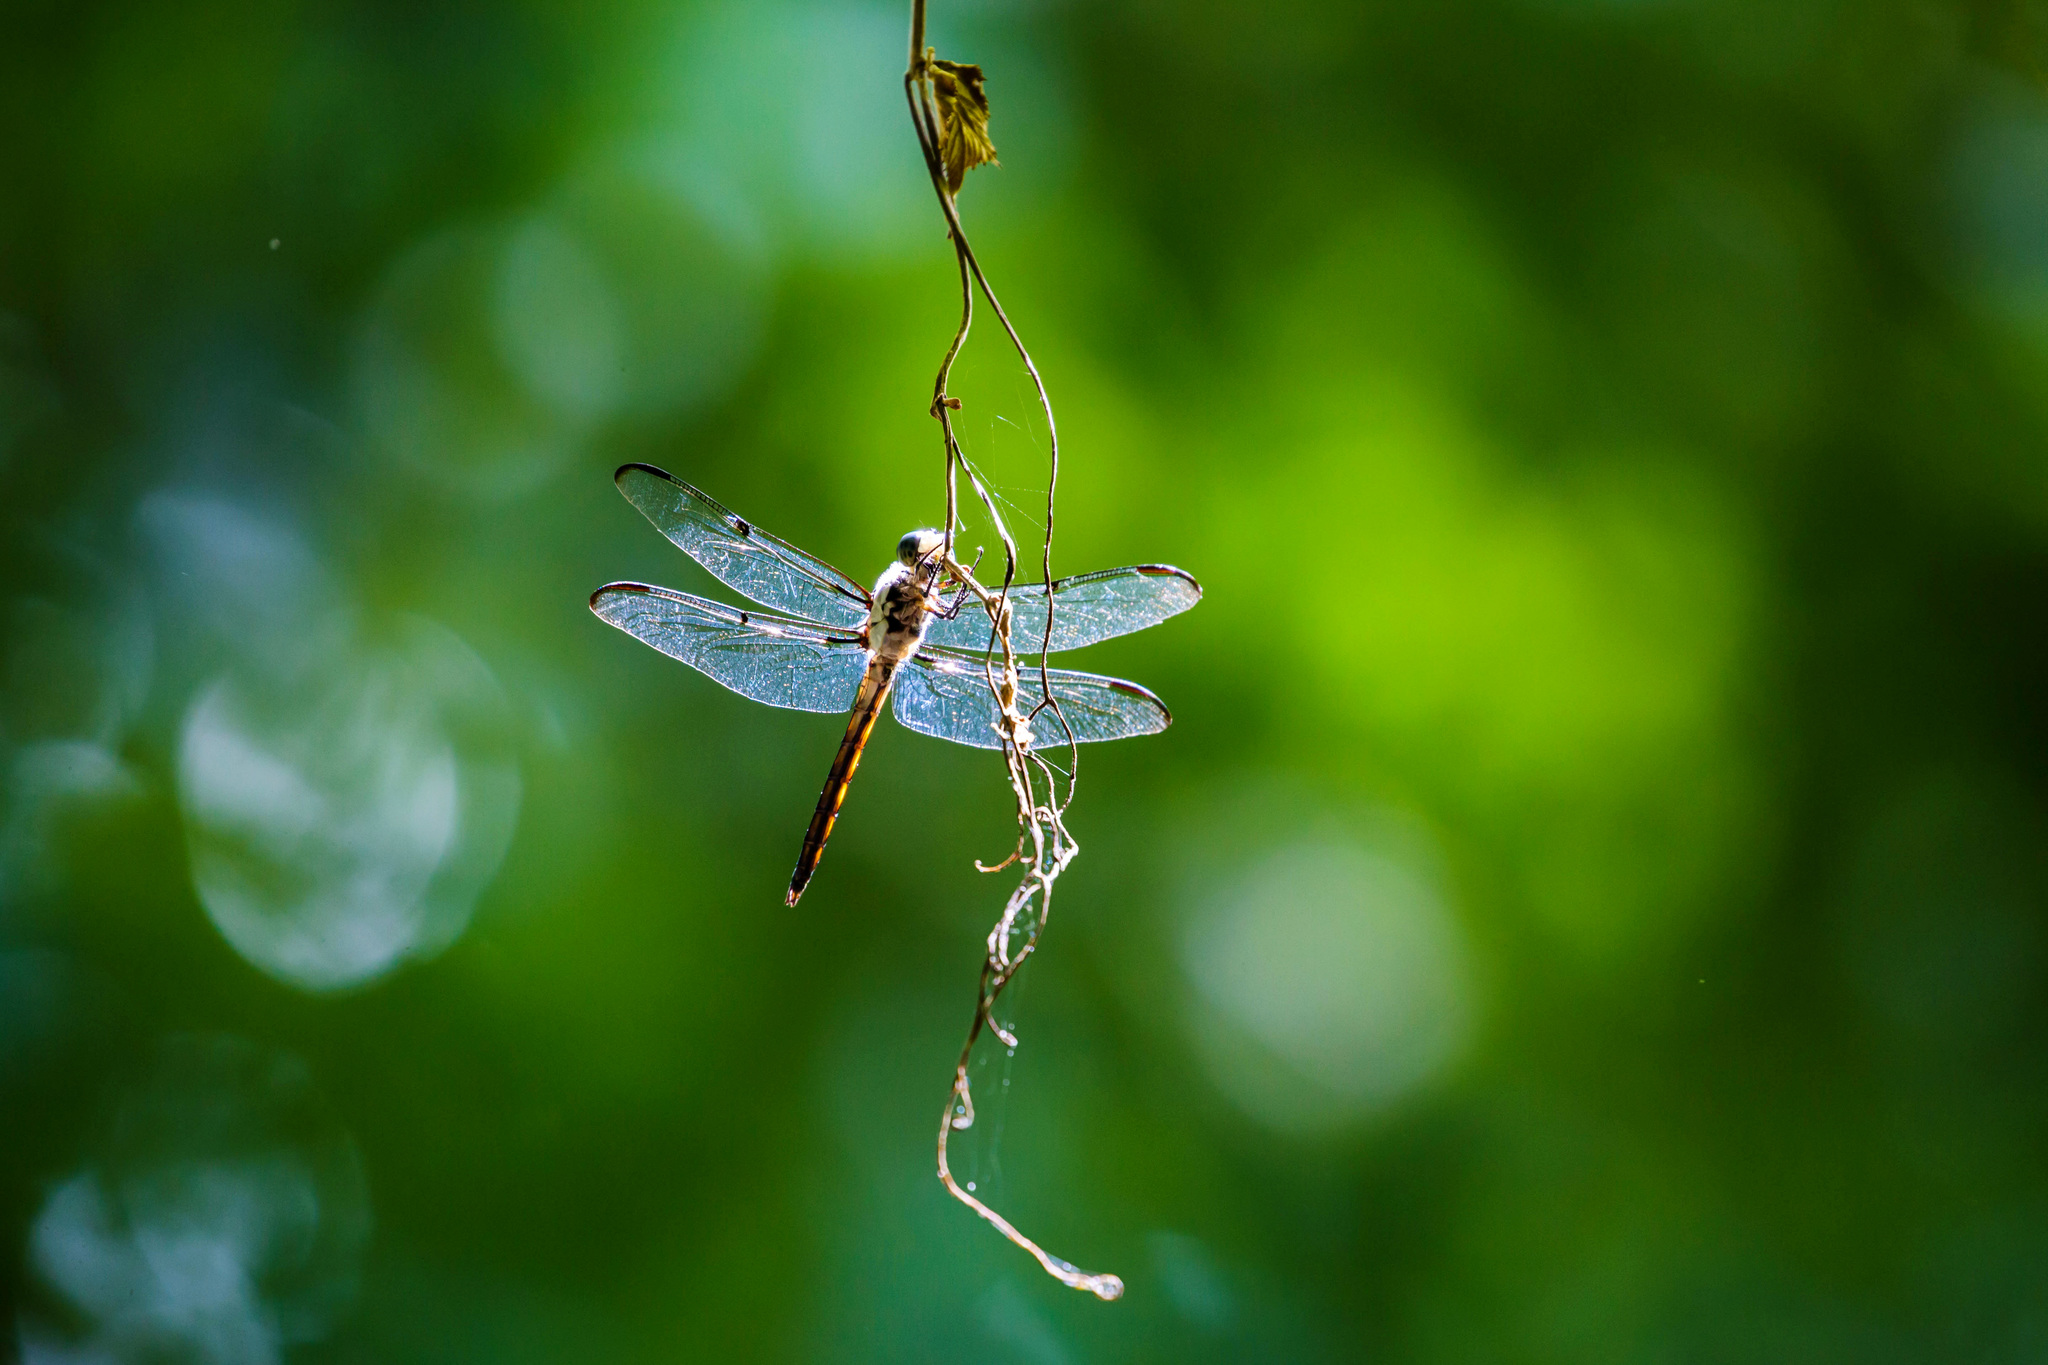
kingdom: Animalia
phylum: Arthropoda
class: Insecta
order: Odonata
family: Libellulidae
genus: Libellula
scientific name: Libellula vibrans
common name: Great blue skimmer
